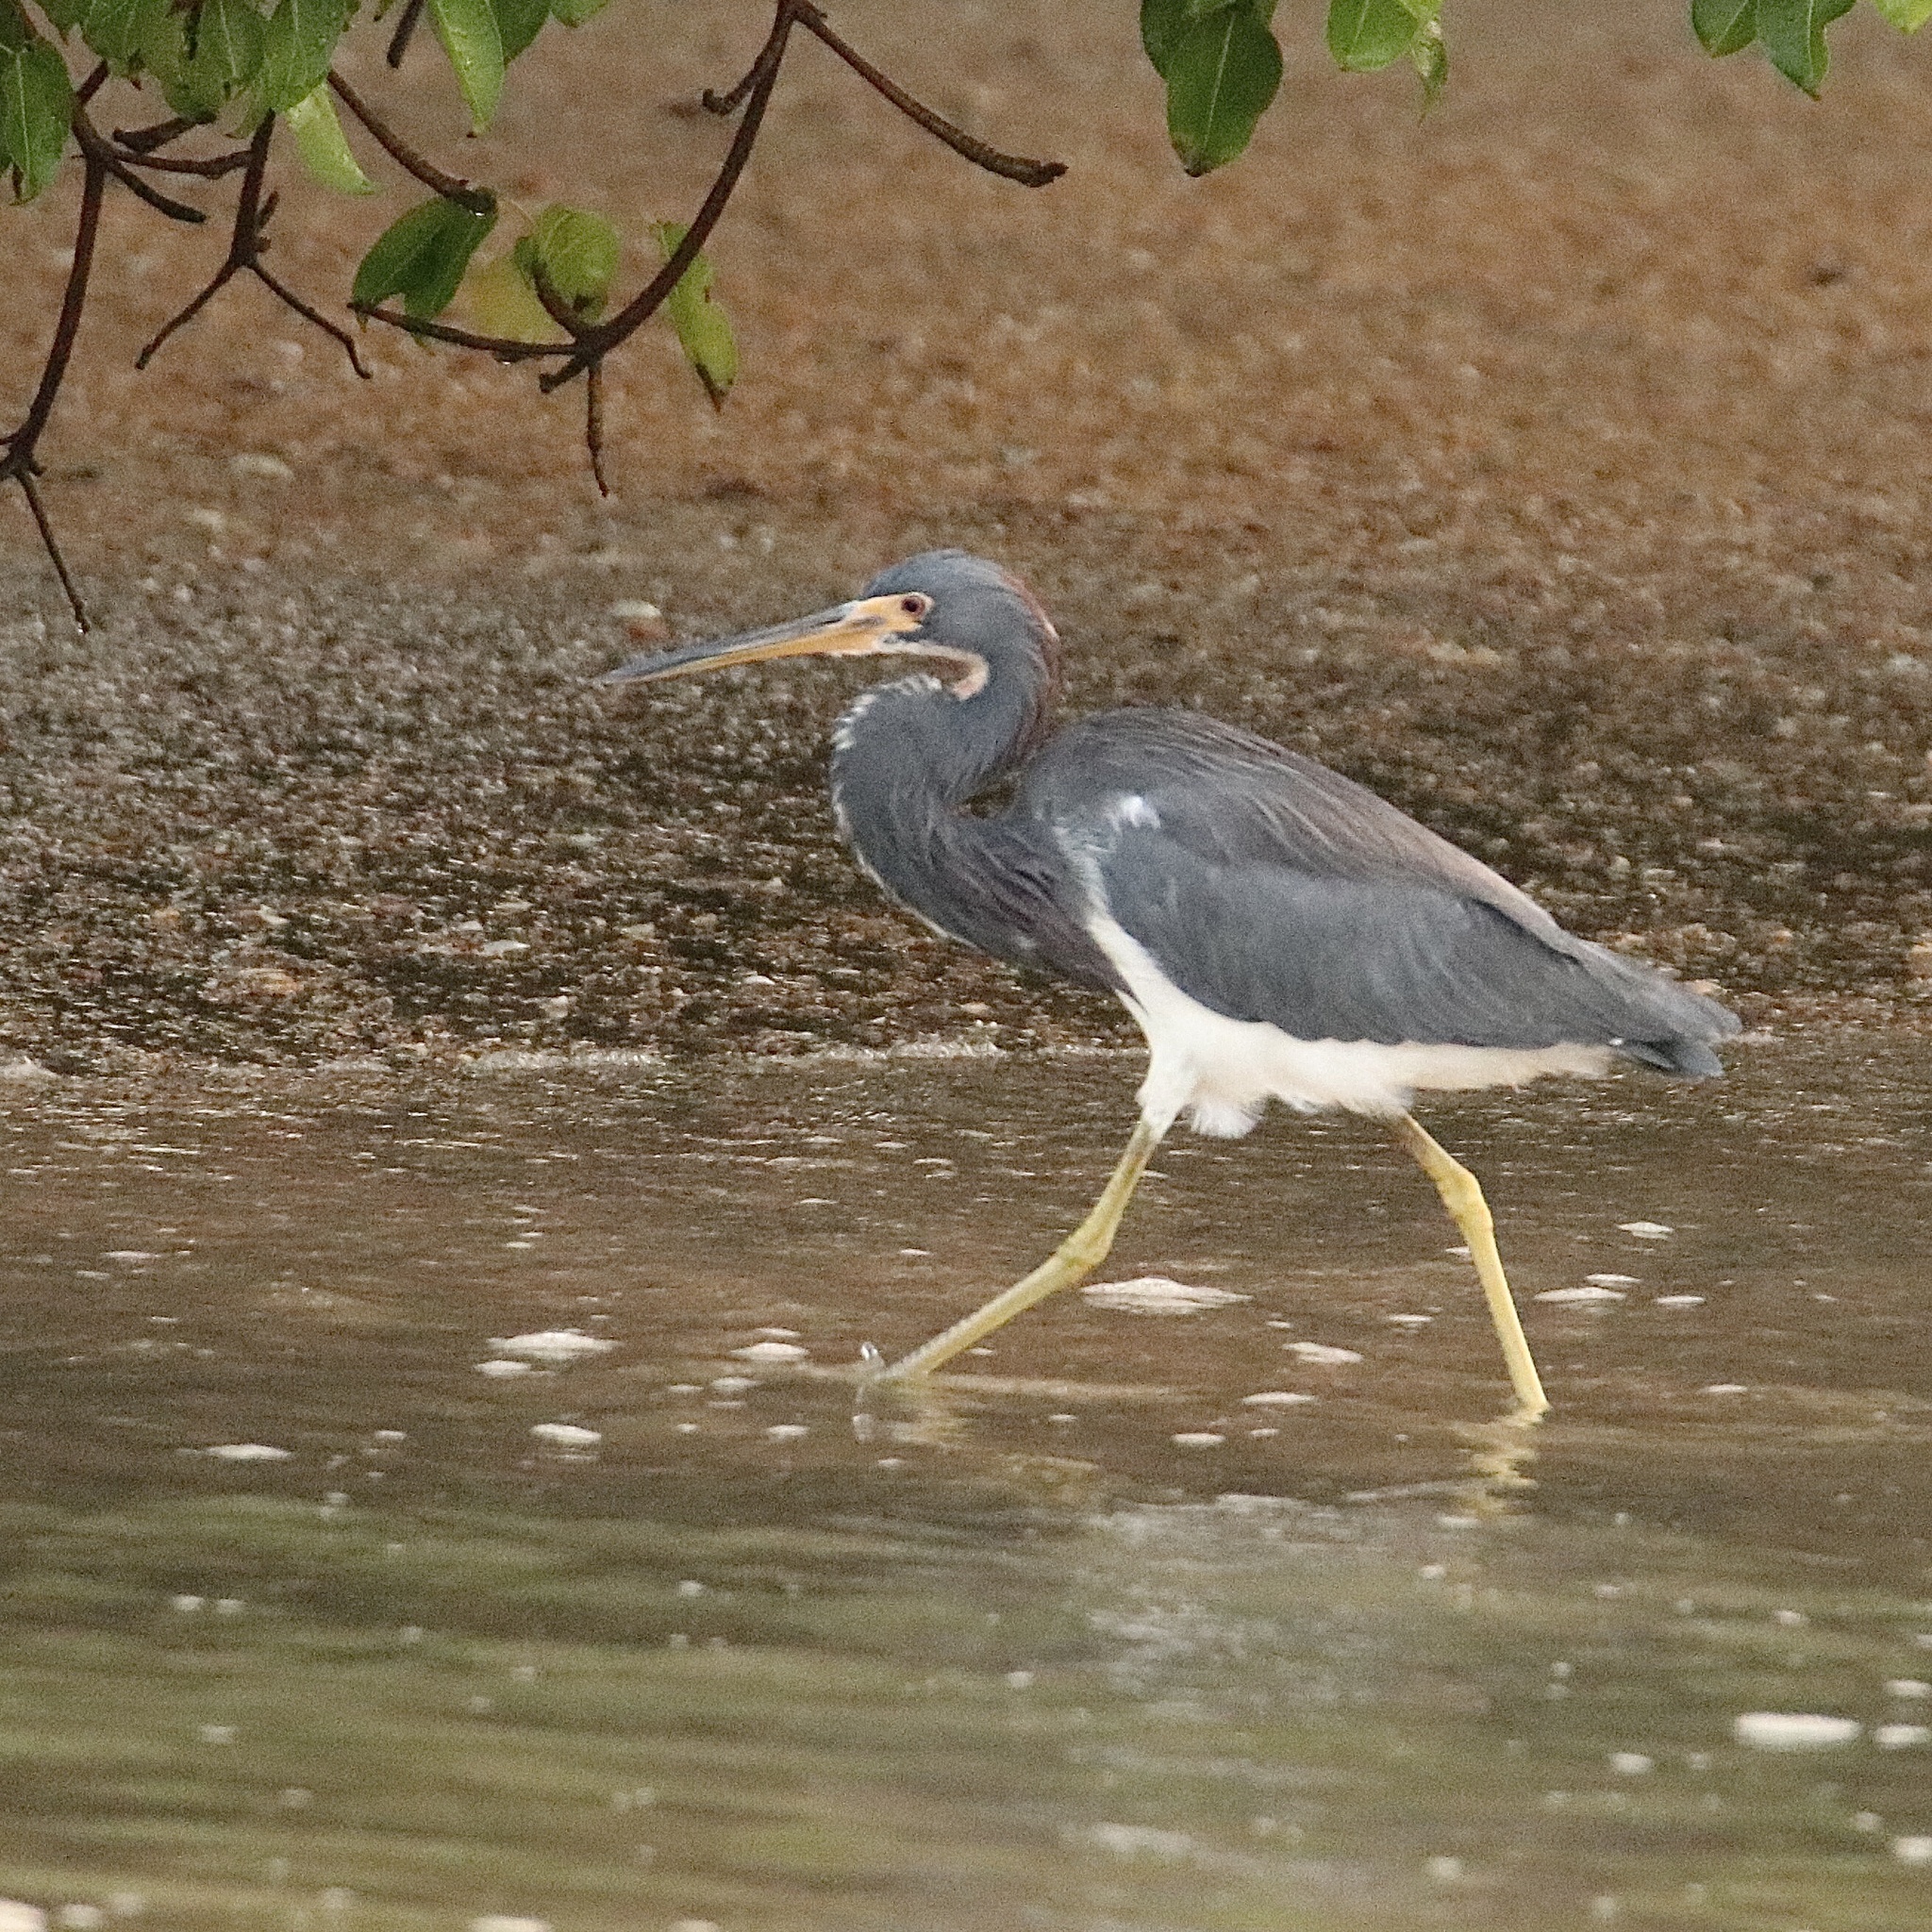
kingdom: Animalia
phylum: Chordata
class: Aves
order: Pelecaniformes
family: Ardeidae
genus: Egretta
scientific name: Egretta tricolor
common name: Tricolored heron
